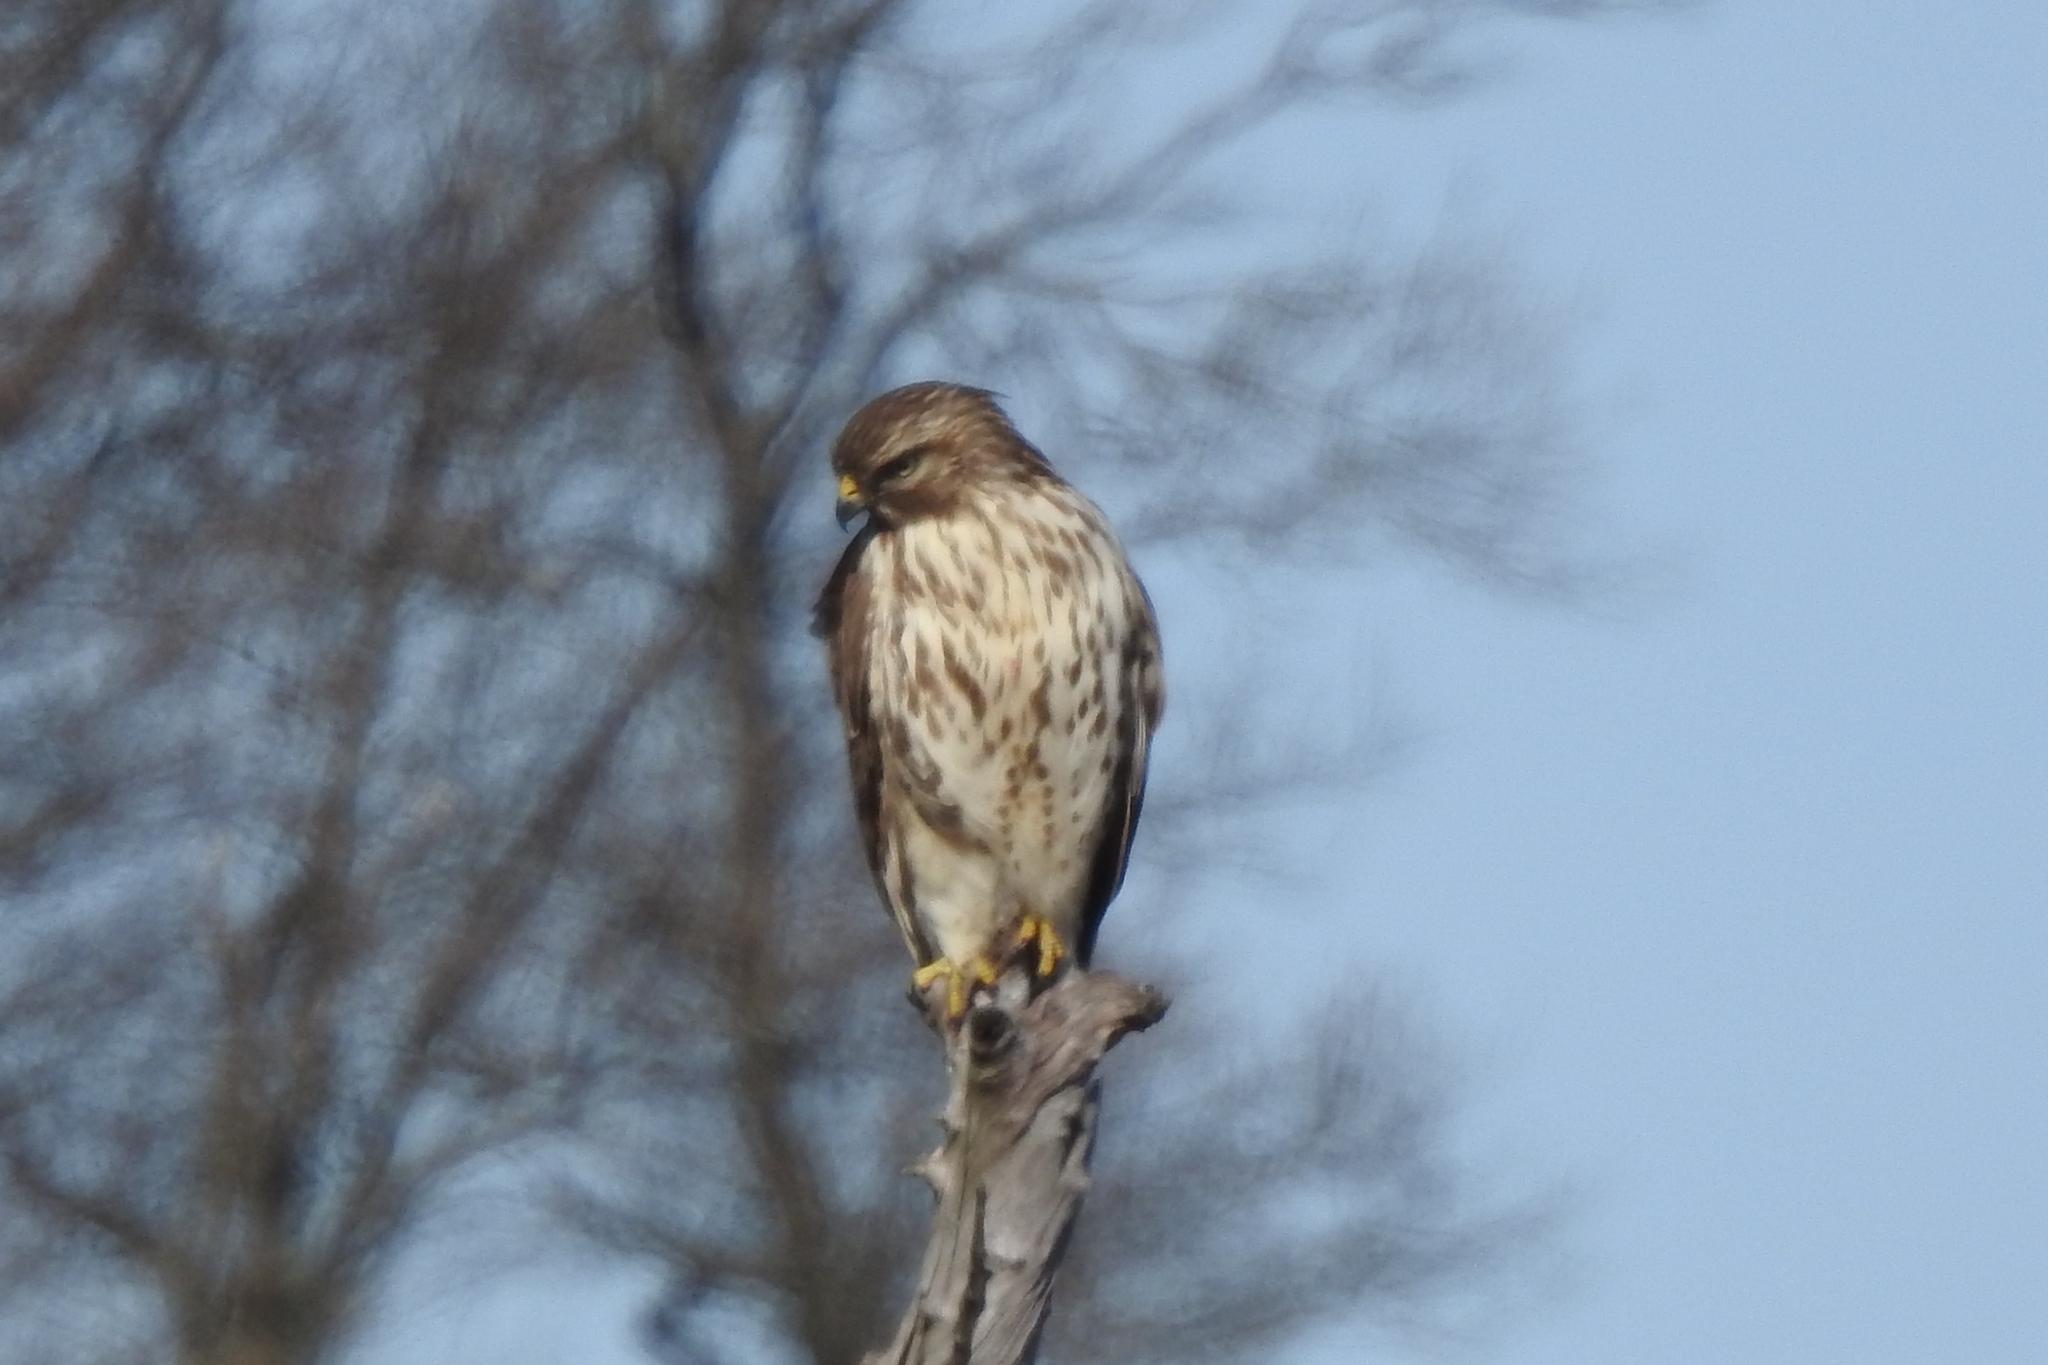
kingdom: Animalia
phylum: Chordata
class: Aves
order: Accipitriformes
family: Accipitridae
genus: Buteo
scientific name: Buteo lineatus
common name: Red-shouldered hawk
